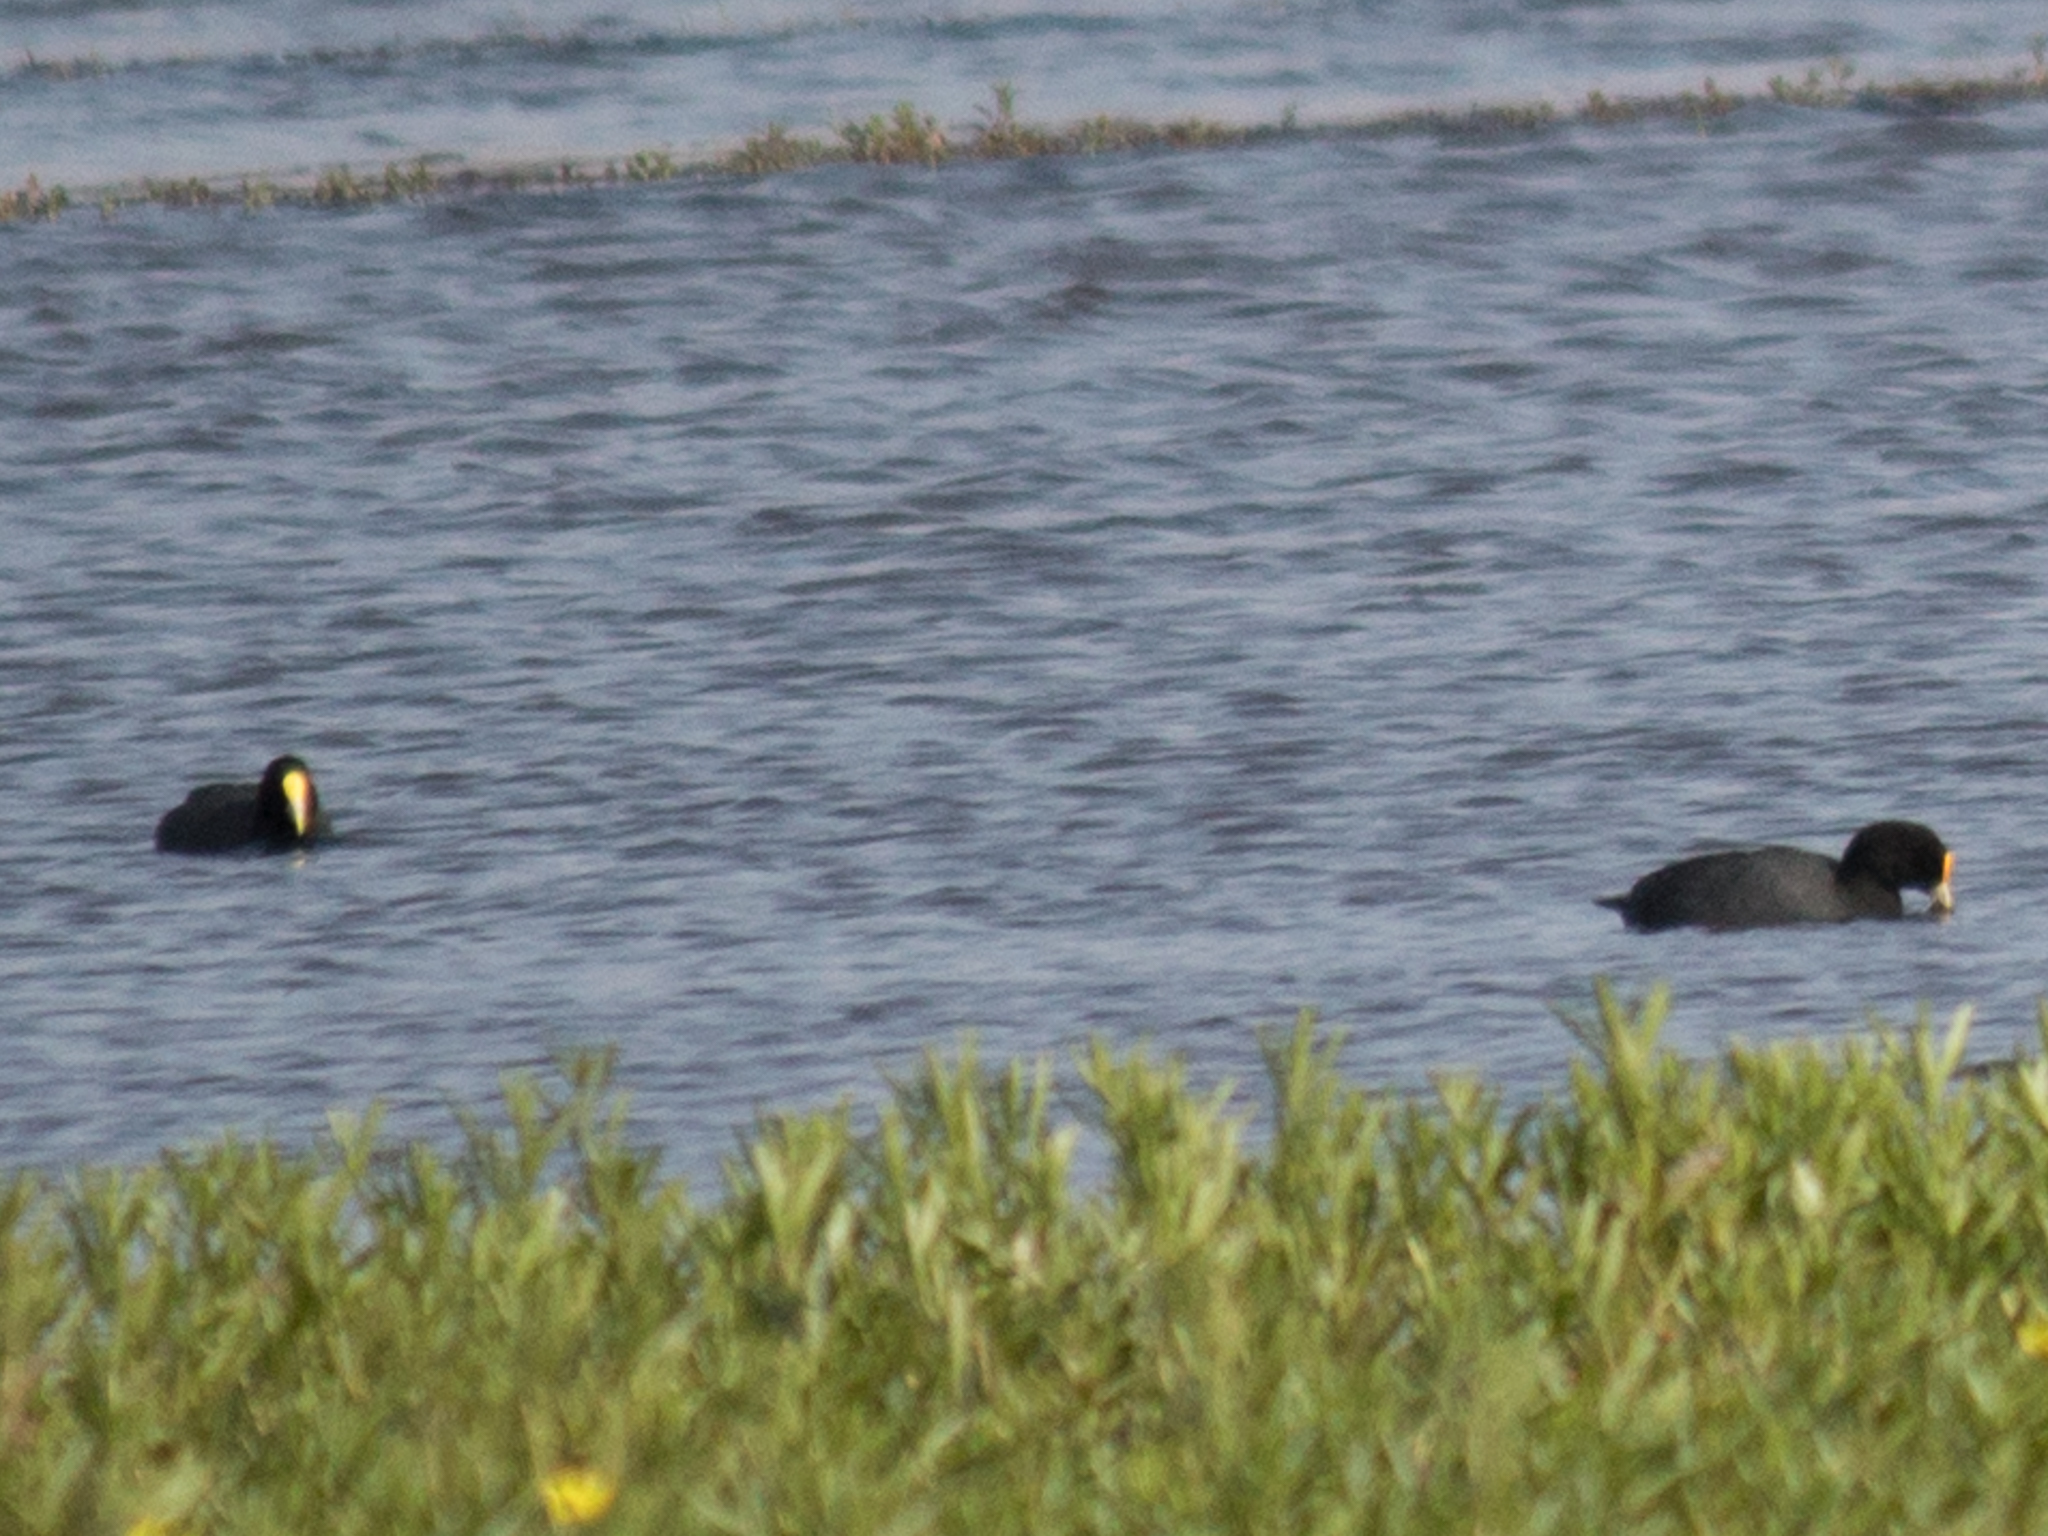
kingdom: Animalia
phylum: Chordata
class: Aves
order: Gruiformes
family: Rallidae
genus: Fulica
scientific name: Fulica leucoptera
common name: White-winged coot
